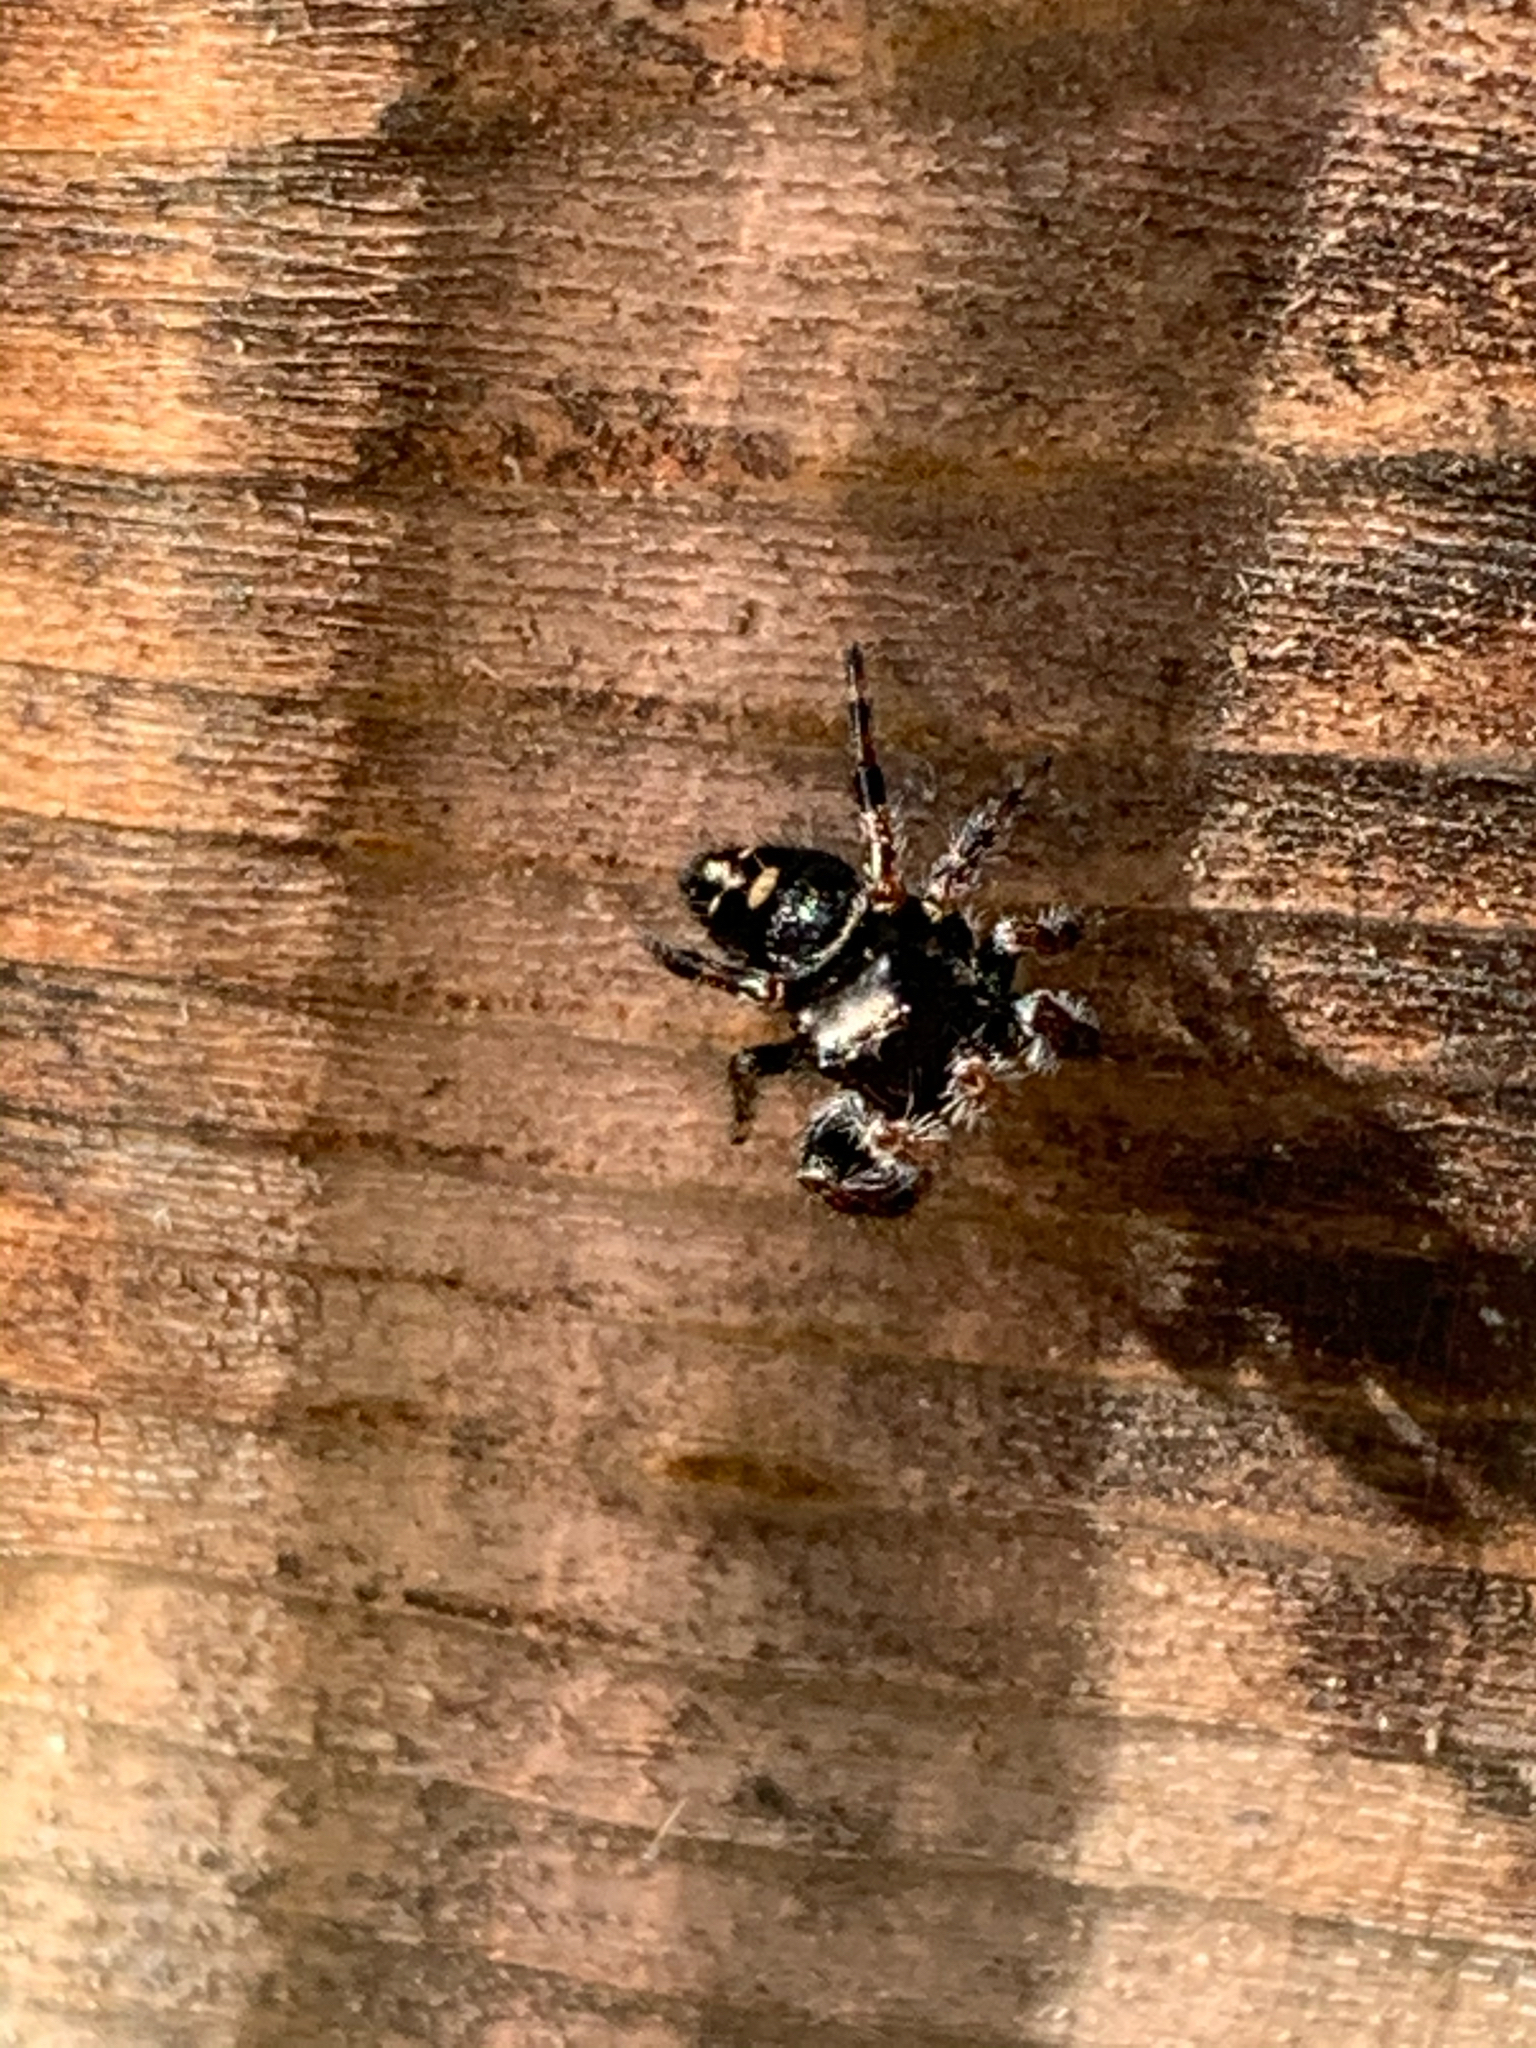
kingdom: Animalia
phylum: Arthropoda
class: Arachnida
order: Araneae
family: Salticidae
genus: Phidippus
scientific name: Phidippus audax
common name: Bold jumper
